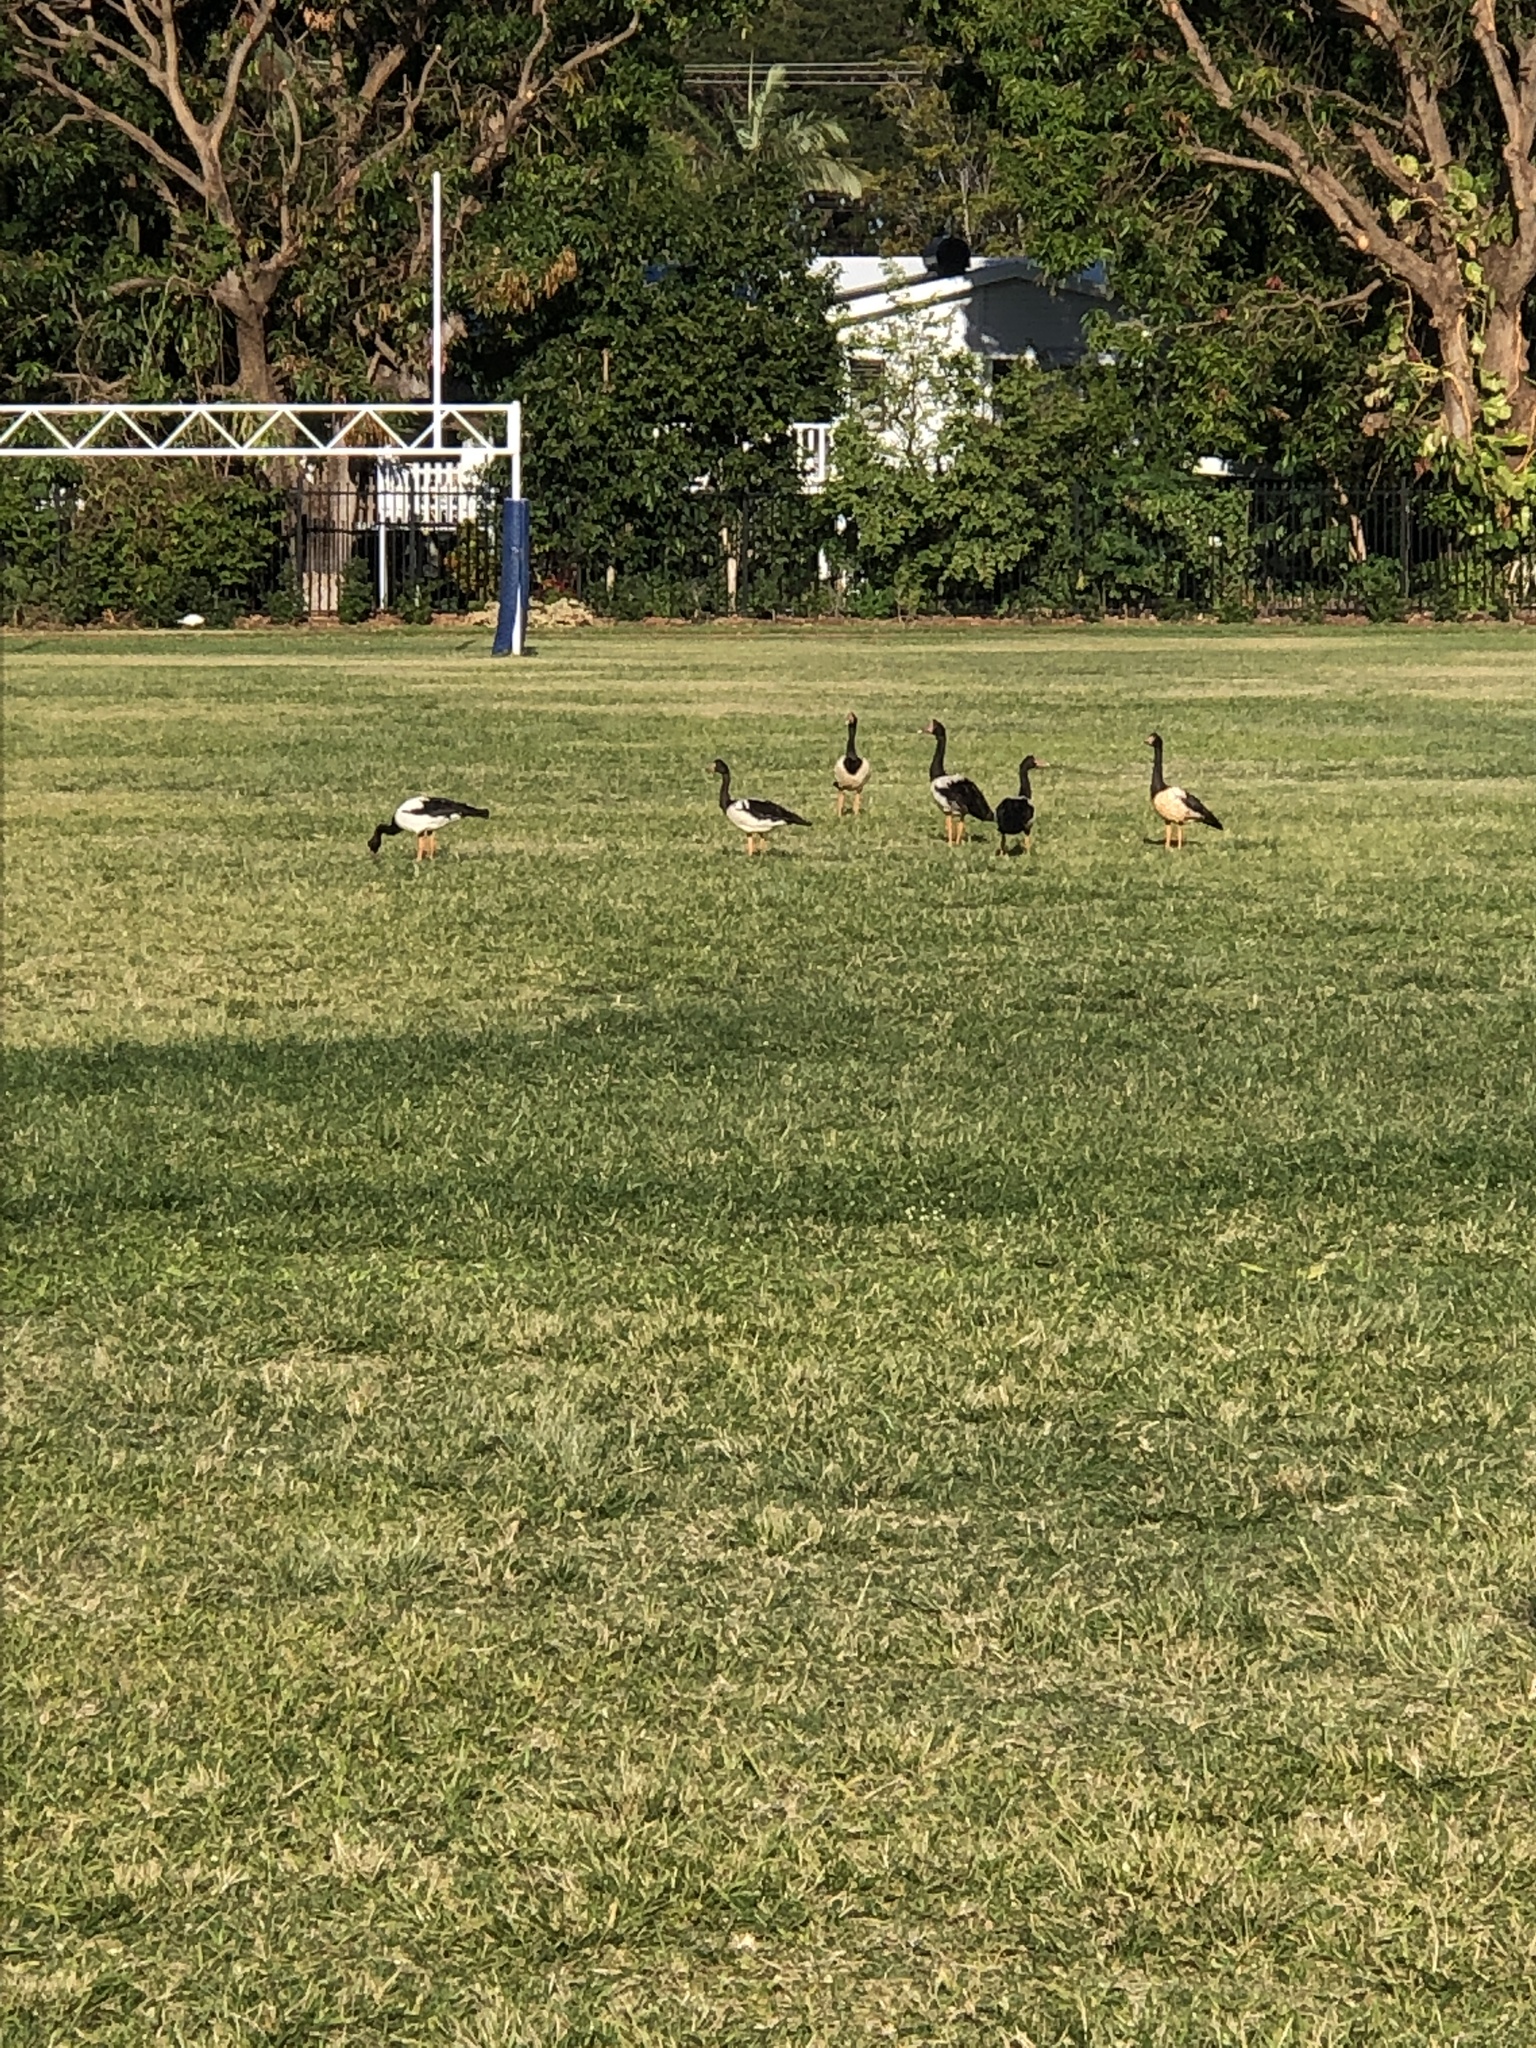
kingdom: Animalia
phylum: Chordata
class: Aves
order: Anseriformes
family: Anseranatidae
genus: Anseranas
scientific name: Anseranas semipalmata
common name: Magpie goose
